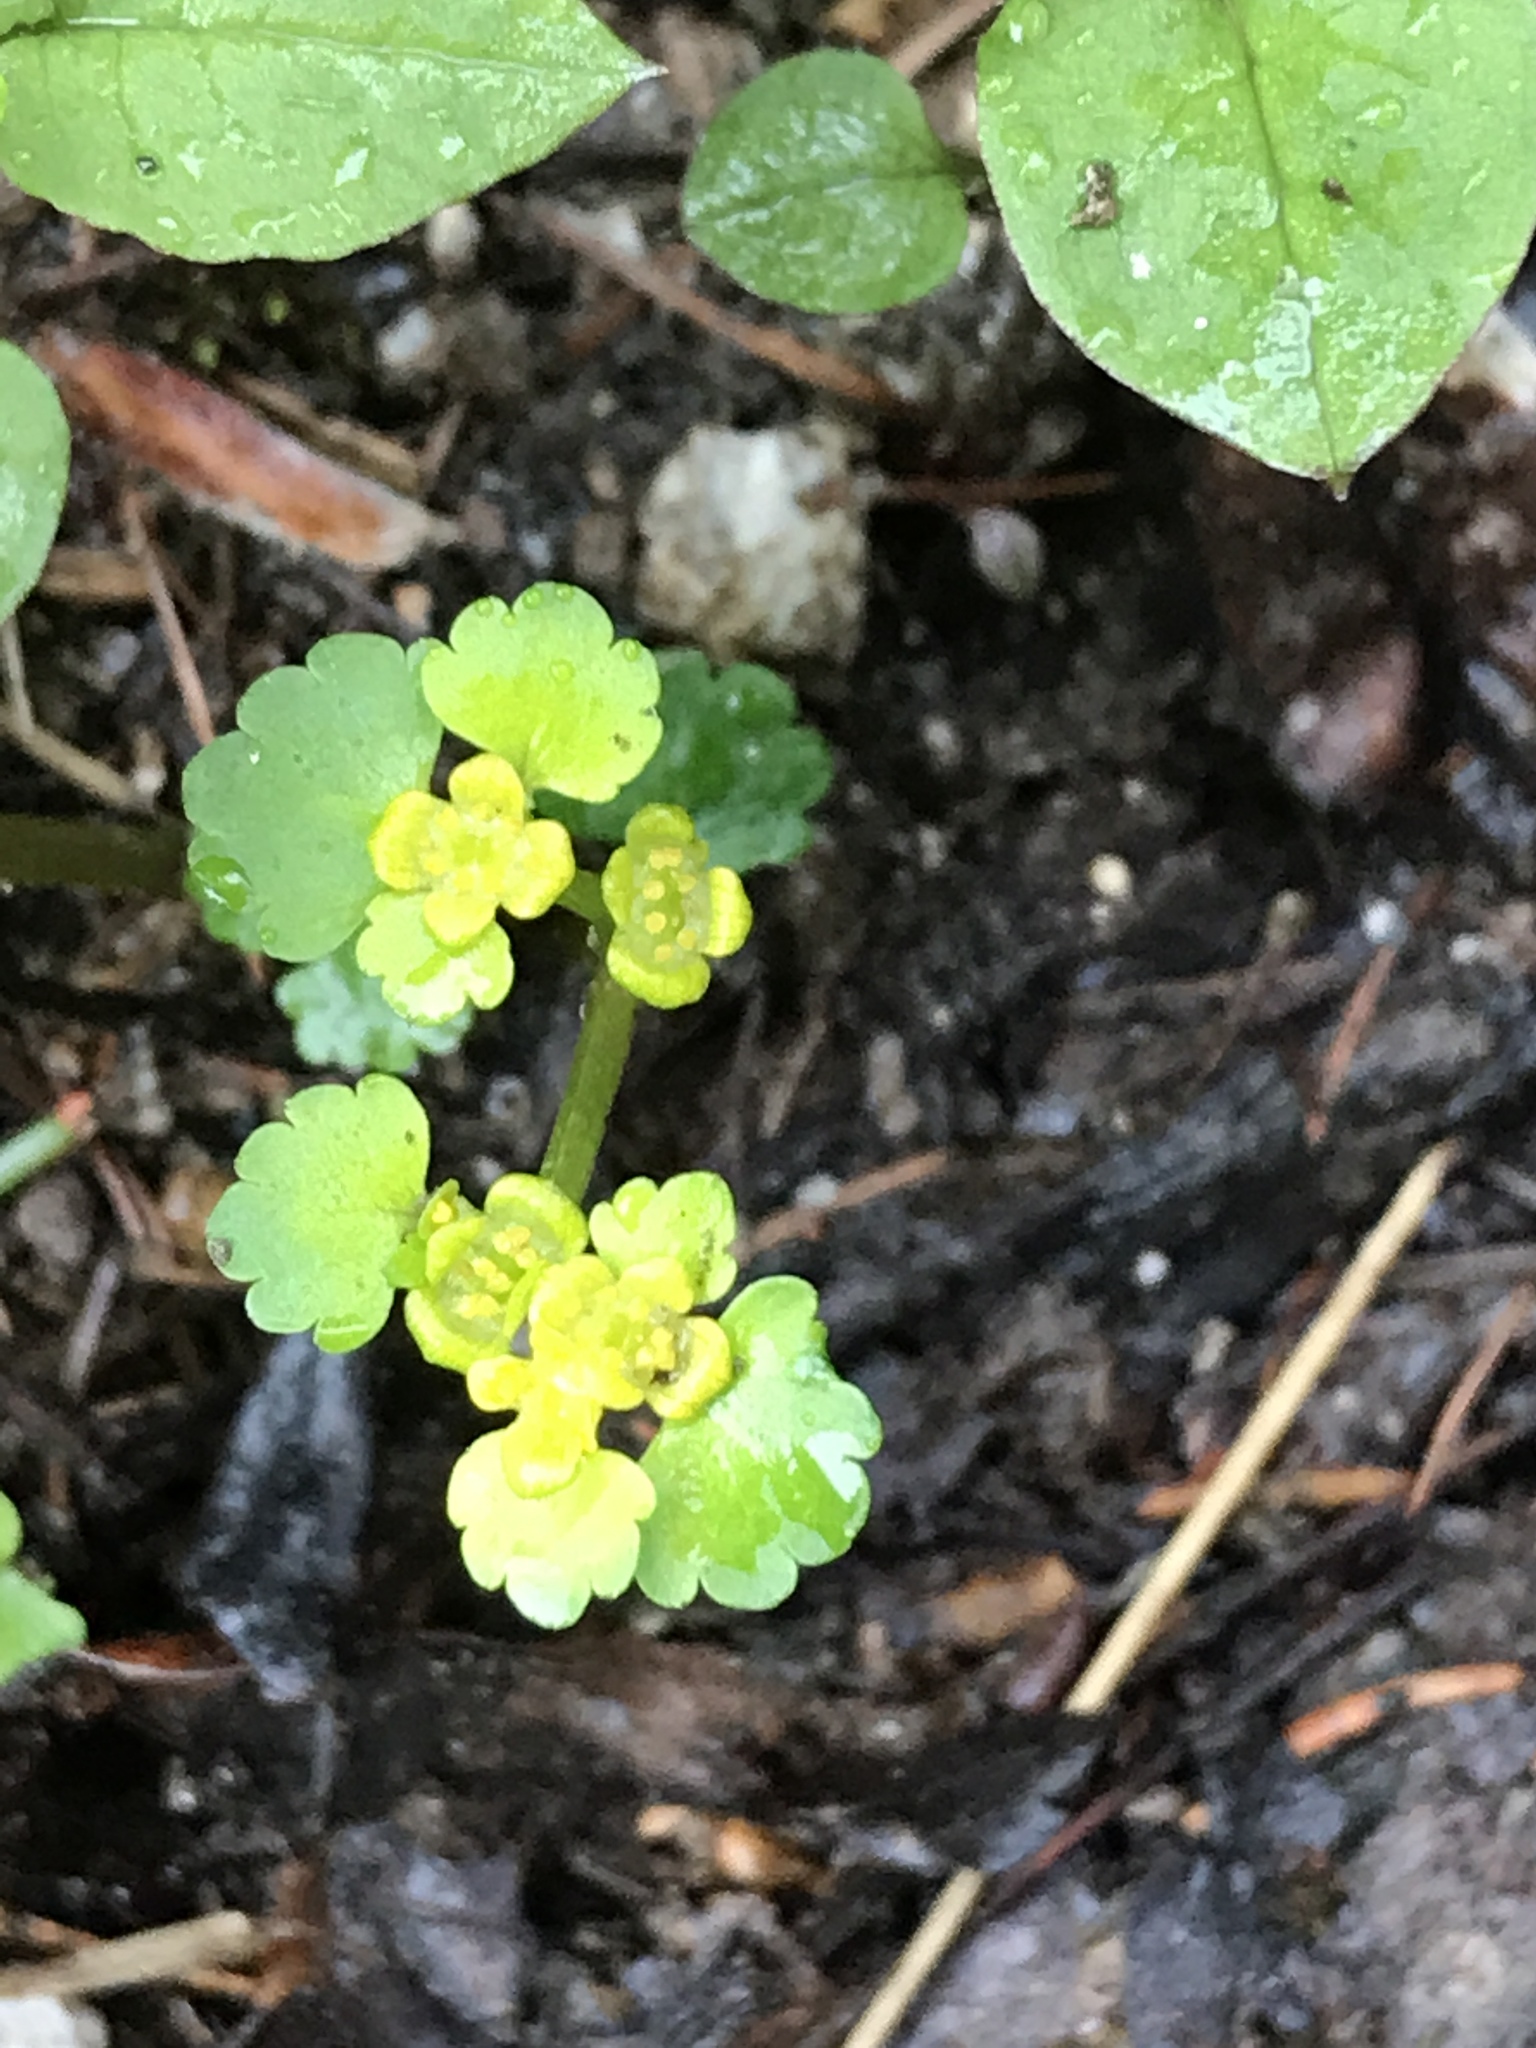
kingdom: Plantae
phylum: Tracheophyta
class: Magnoliopsida
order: Saxifragales
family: Saxifragaceae
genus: Chrysosplenium
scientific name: Chrysosplenium alternifolium
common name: Alternate-leaved golden-saxifrage
